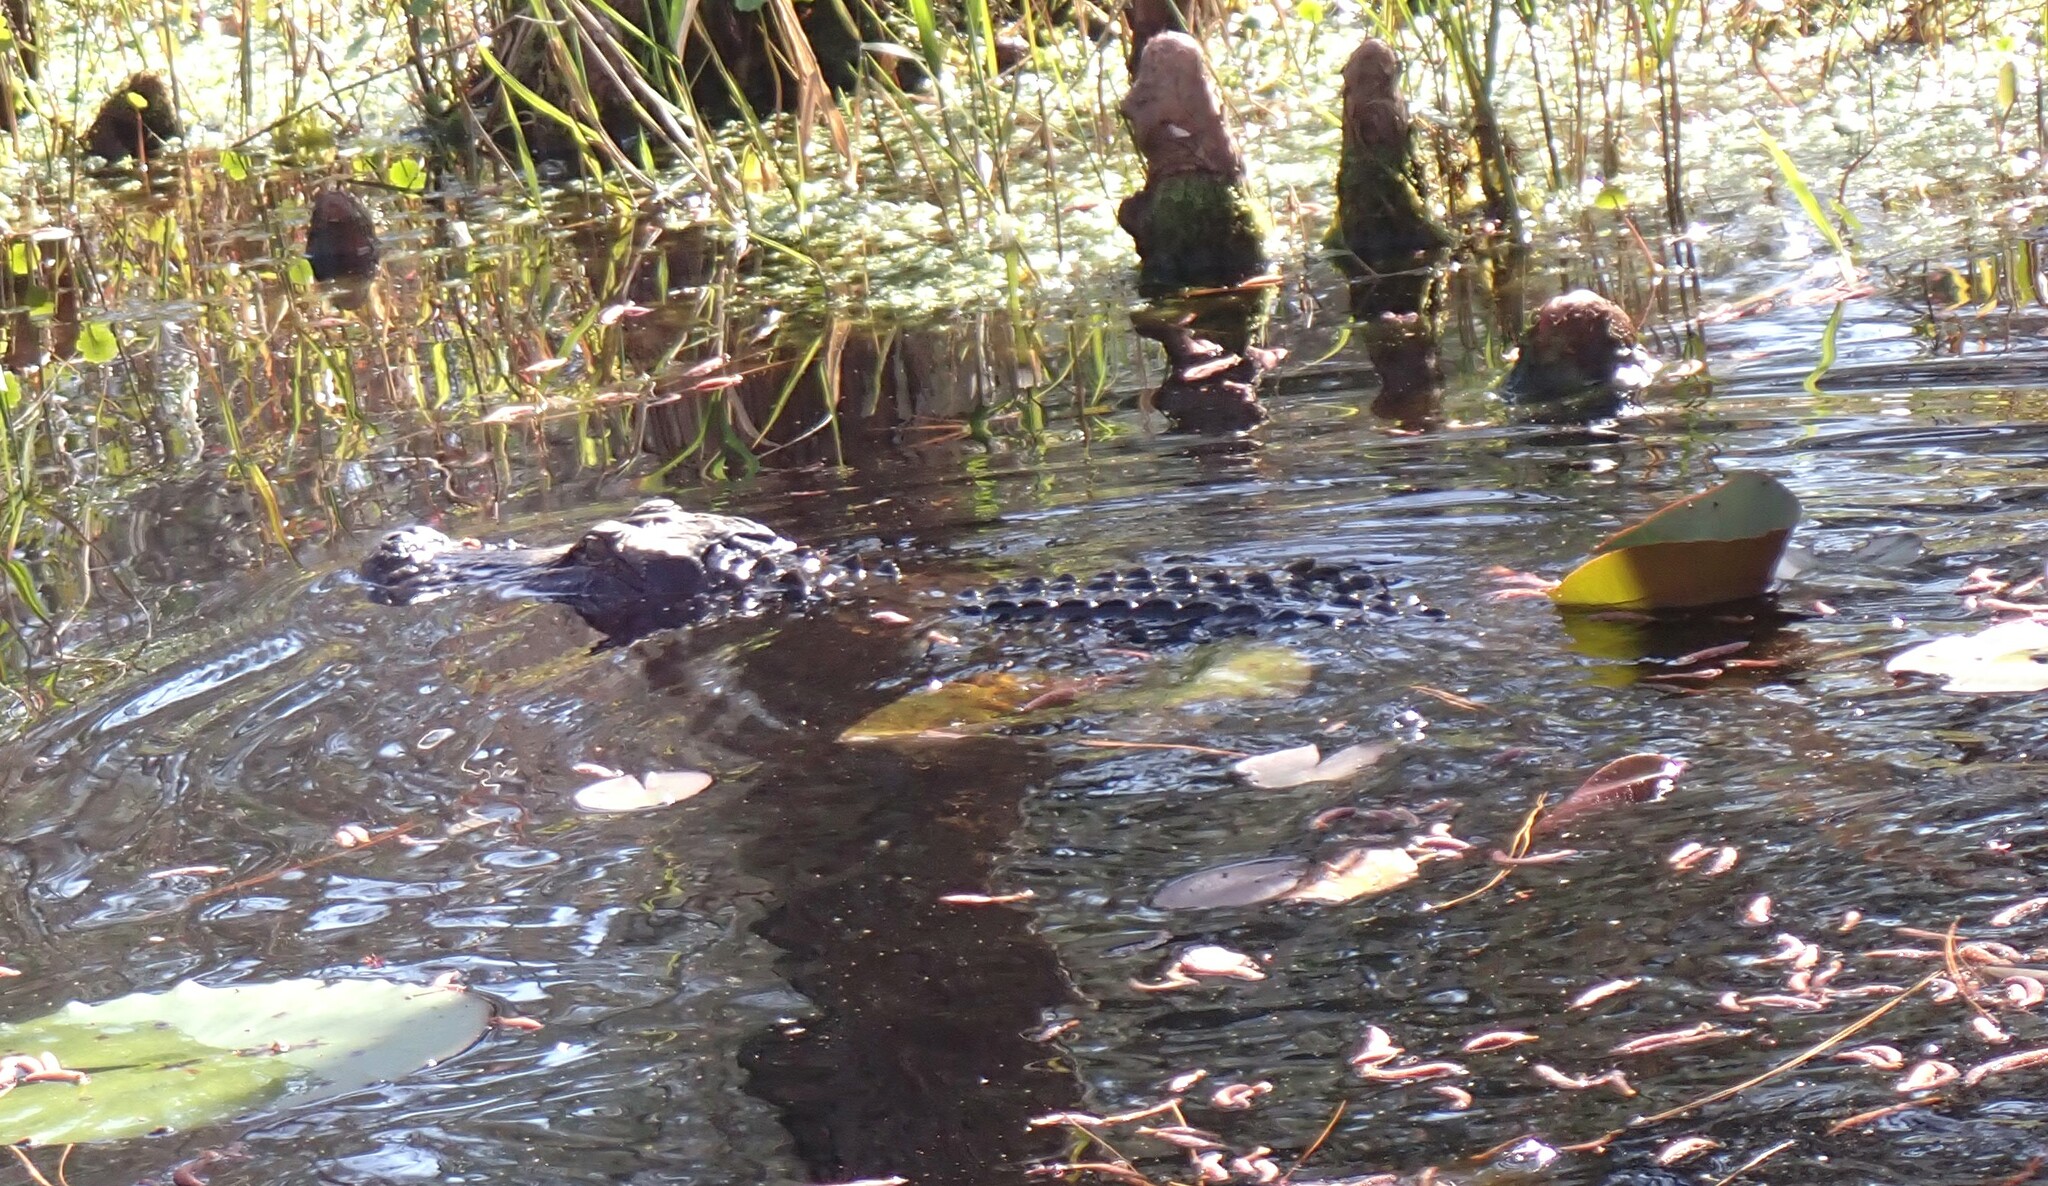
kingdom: Animalia
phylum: Chordata
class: Crocodylia
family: Alligatoridae
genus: Alligator
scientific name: Alligator mississippiensis
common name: American alligator
